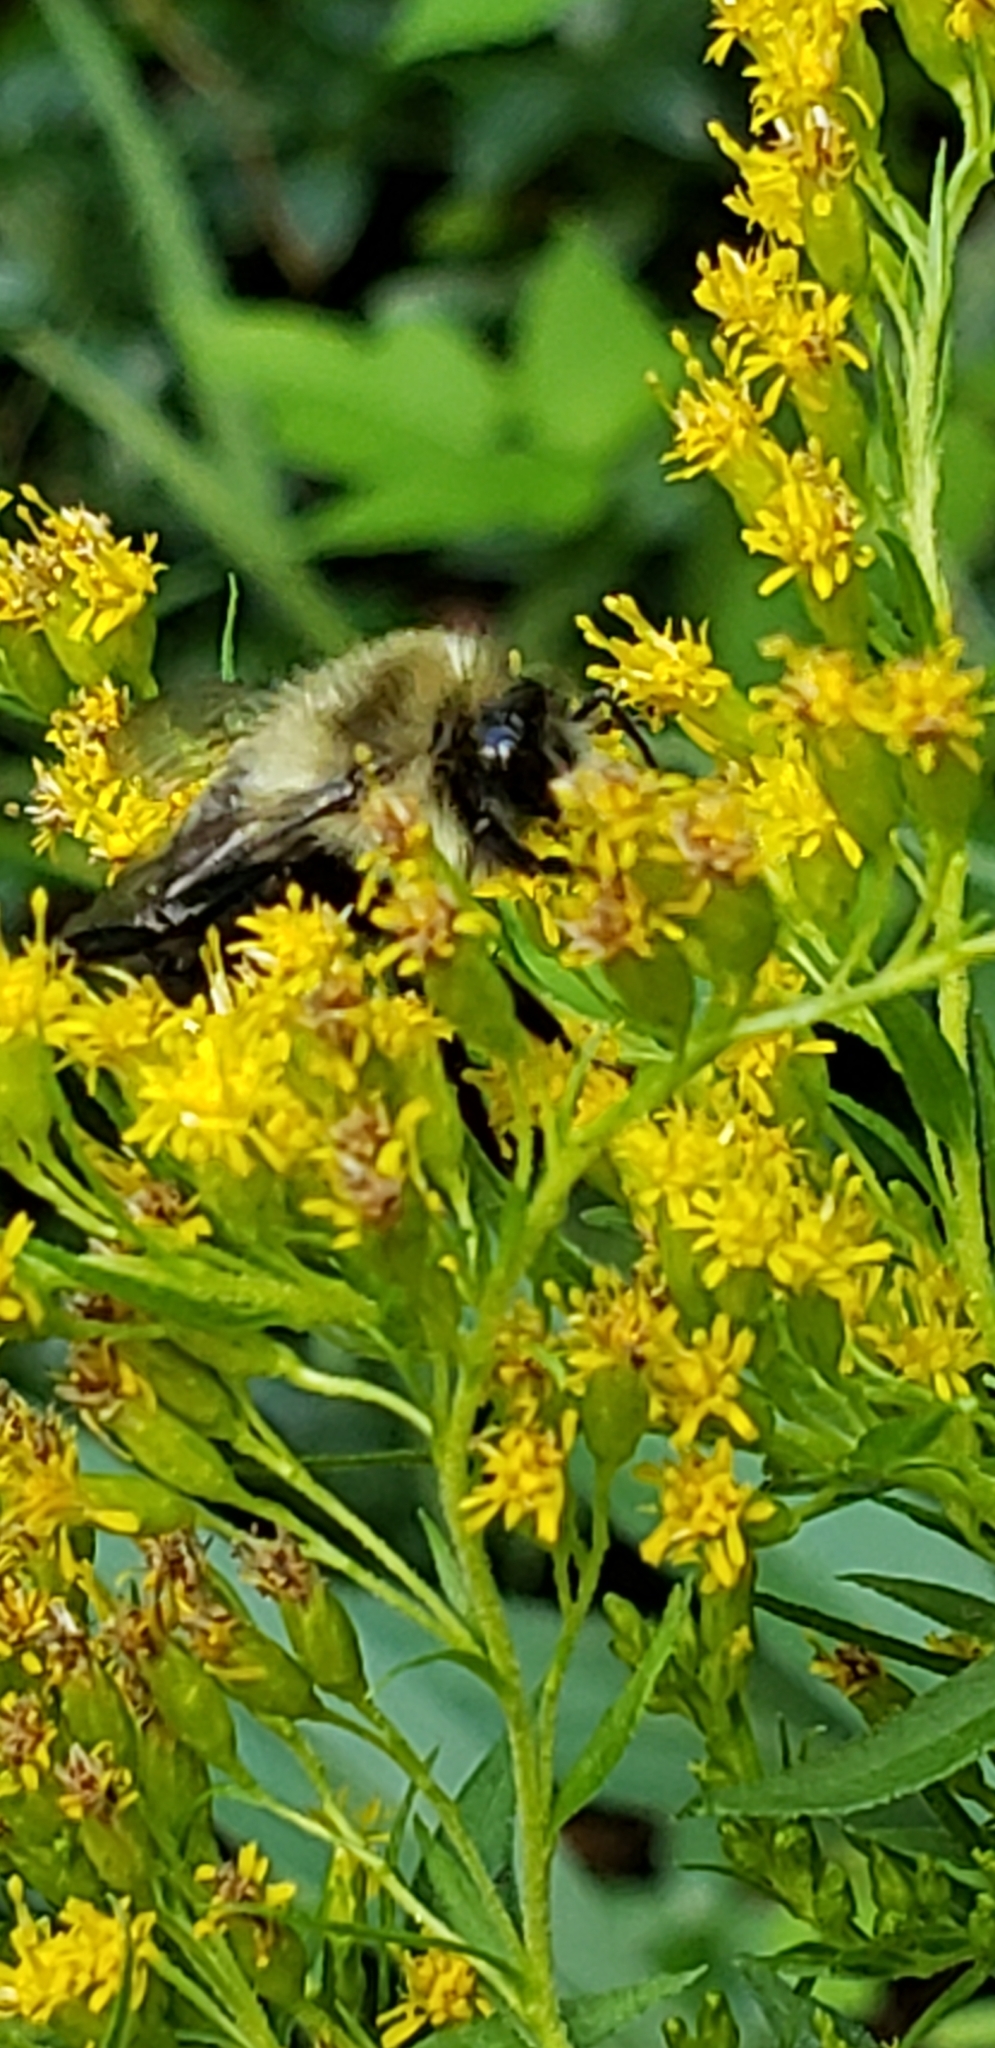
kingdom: Animalia
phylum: Arthropoda
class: Insecta
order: Hymenoptera
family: Apidae
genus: Bombus
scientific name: Bombus impatiens
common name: Common eastern bumble bee
